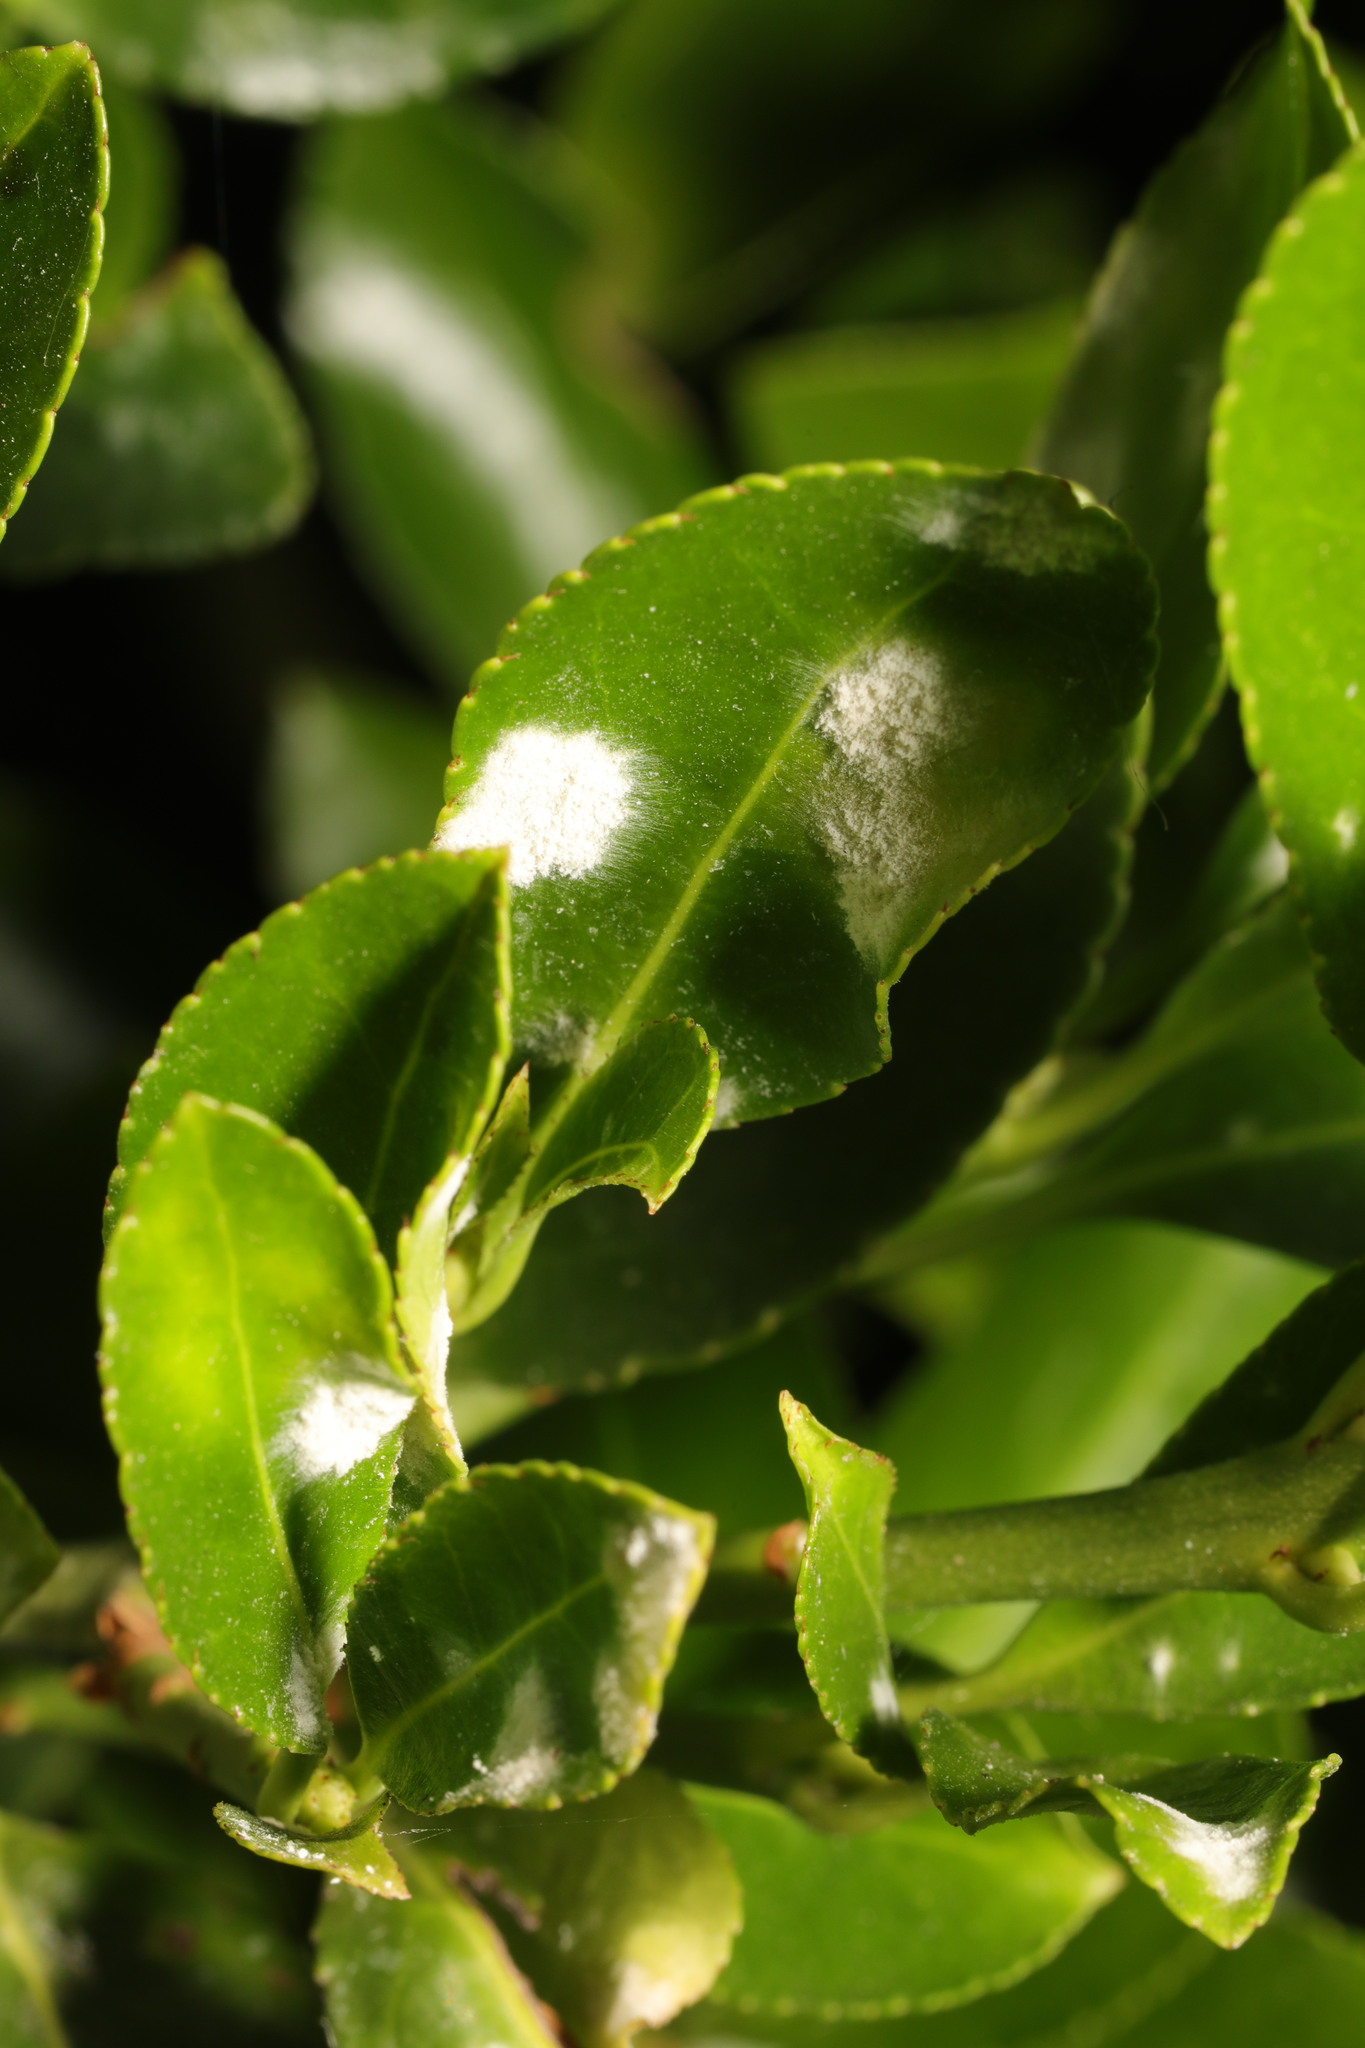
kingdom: Plantae
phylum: Tracheophyta
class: Magnoliopsida
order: Celastrales
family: Celastraceae
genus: Euonymus
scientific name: Euonymus japonicus
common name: Japanese spindletree
